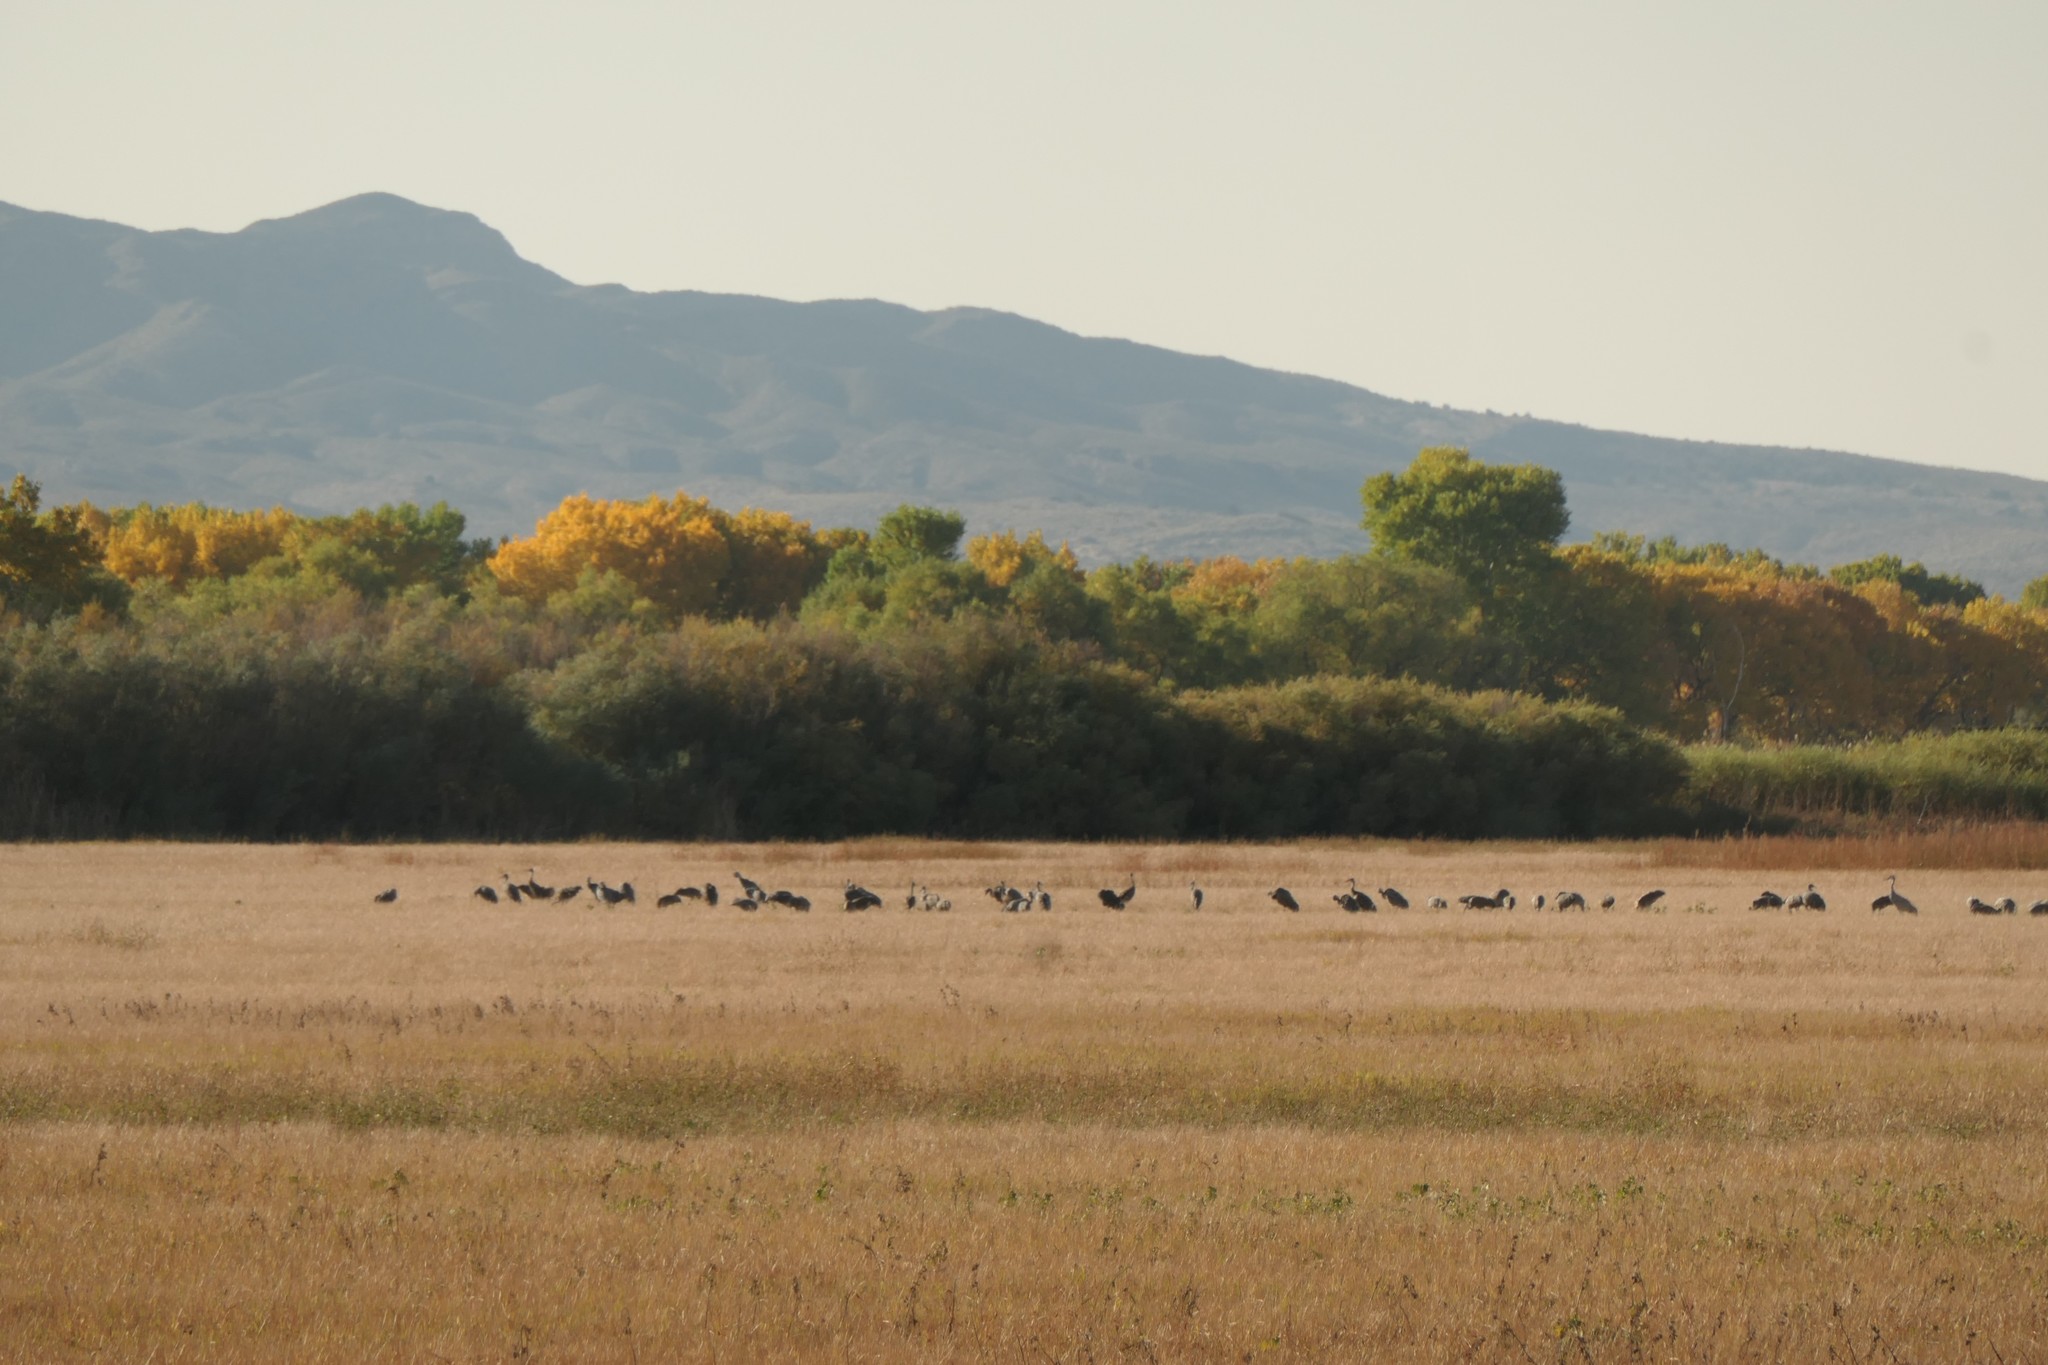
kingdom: Animalia
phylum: Chordata
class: Aves
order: Gruiformes
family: Gruidae
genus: Grus
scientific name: Grus canadensis
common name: Sandhill crane
